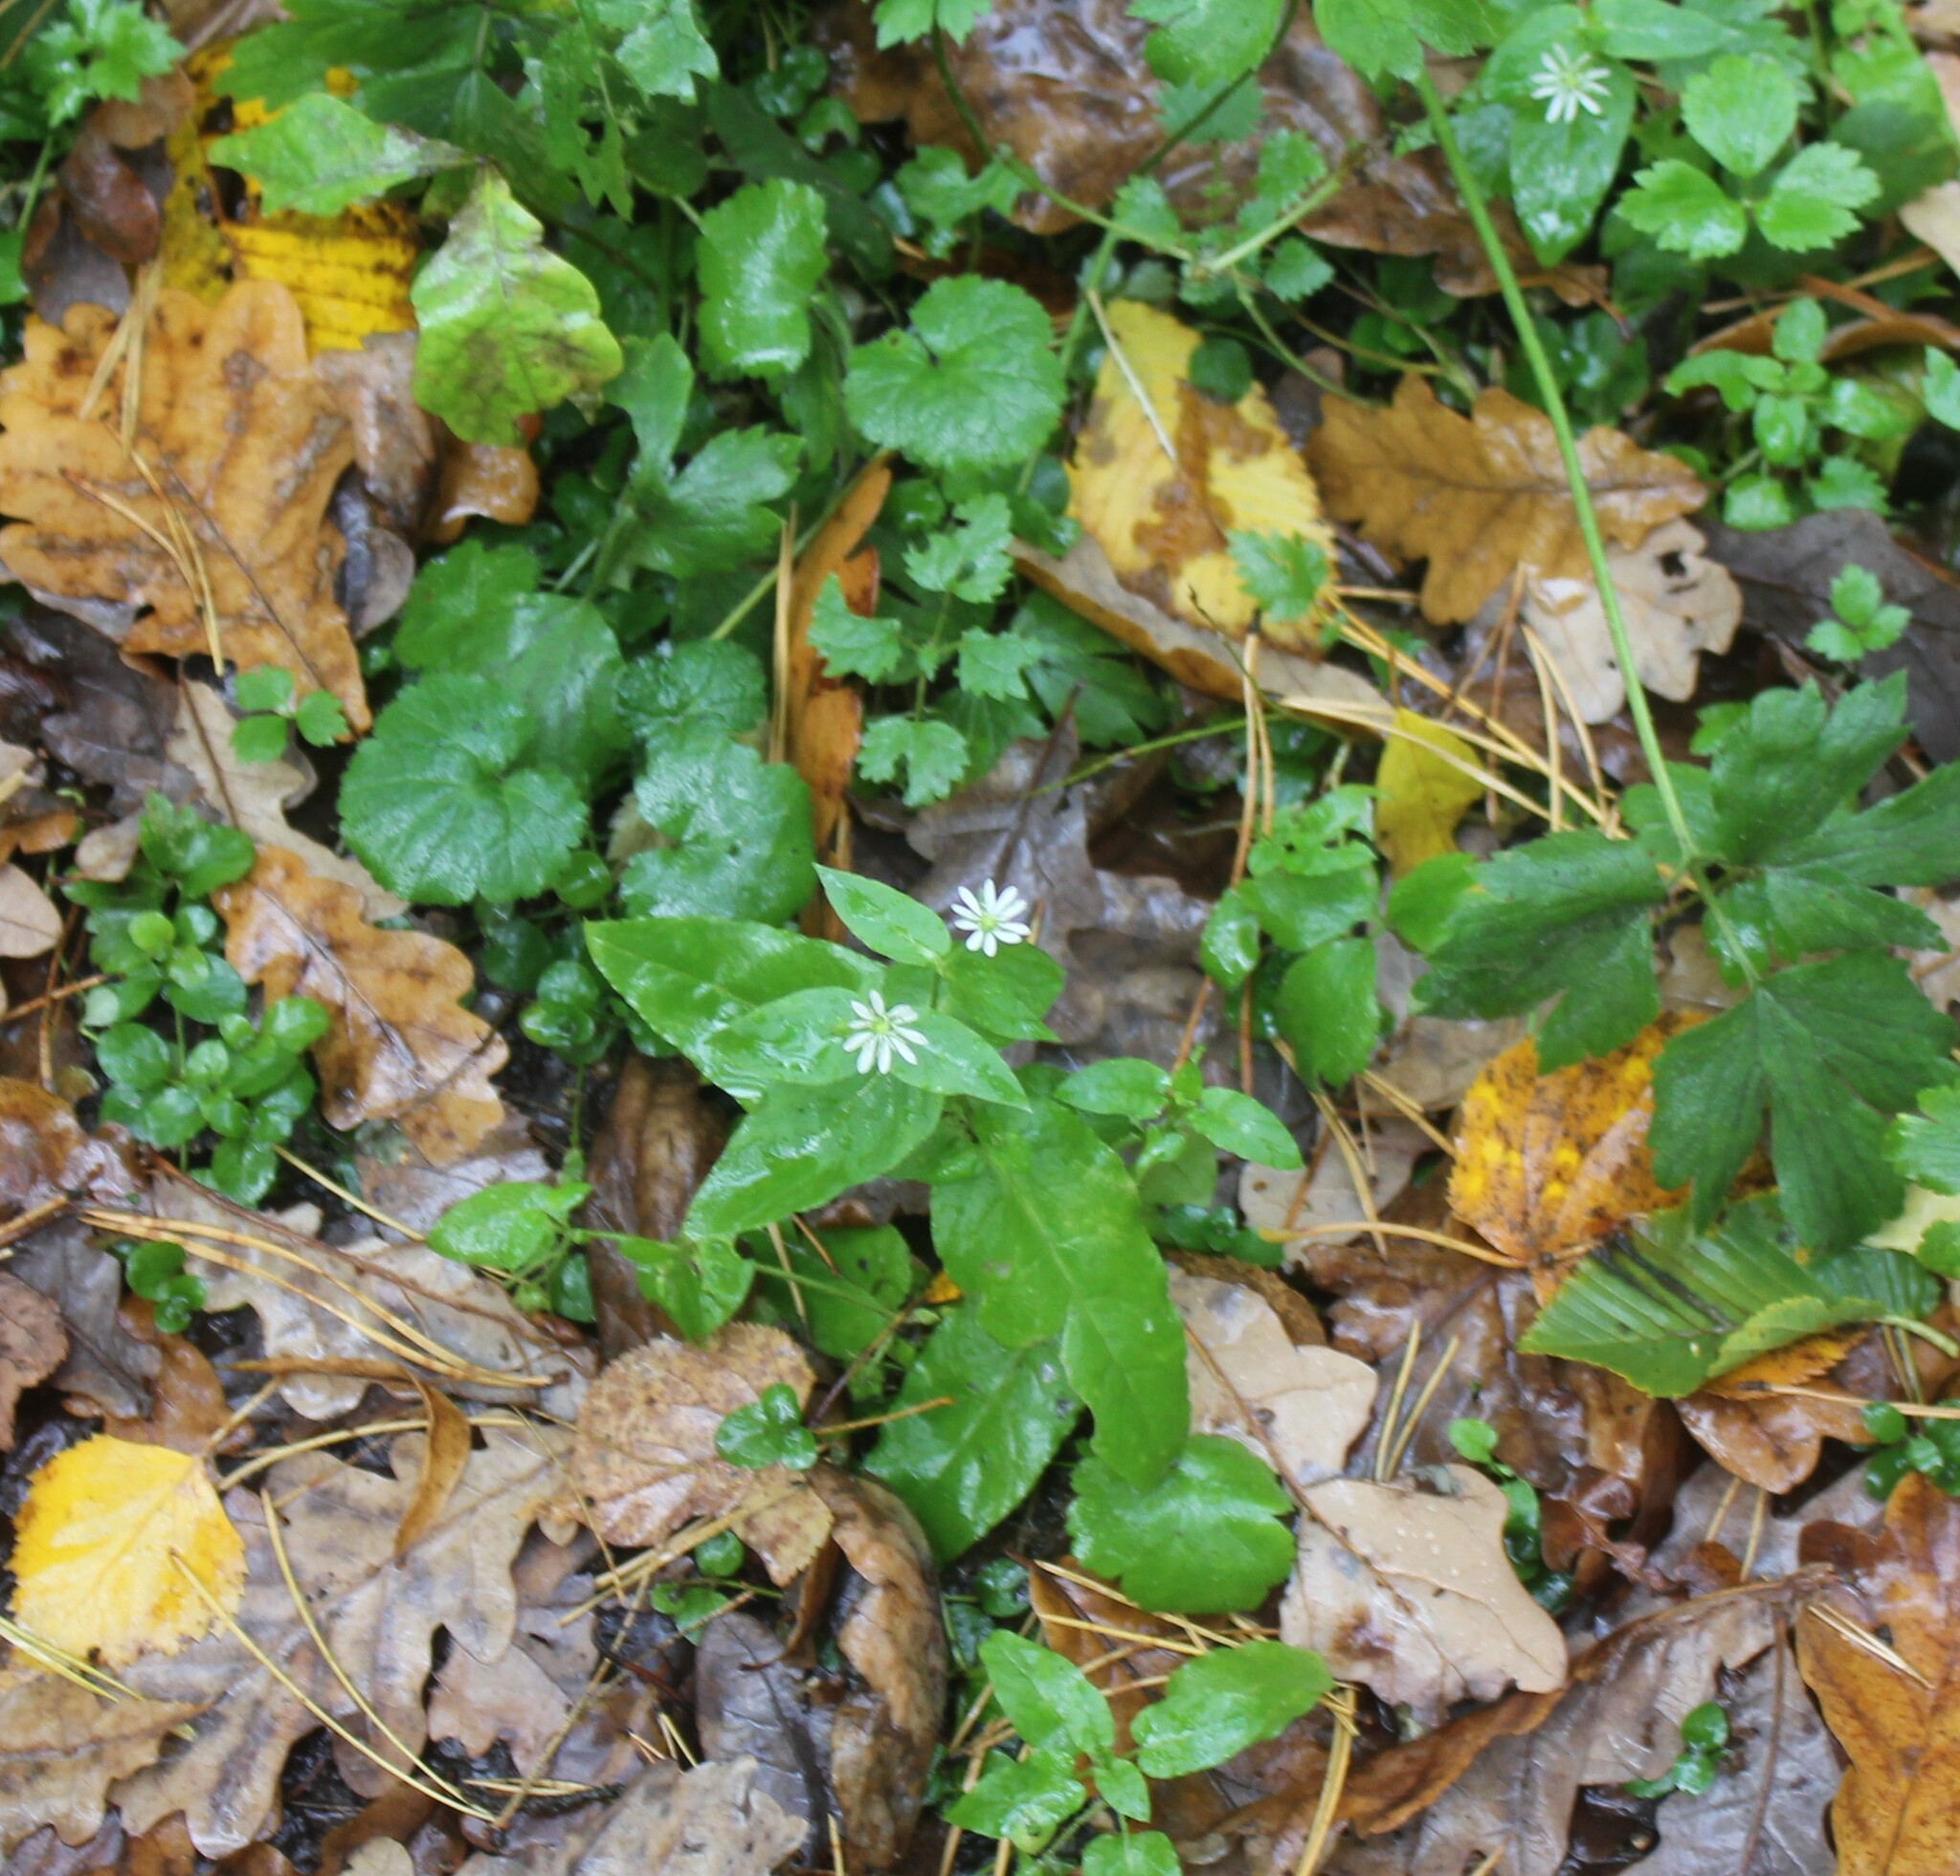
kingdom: Plantae
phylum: Tracheophyta
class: Magnoliopsida
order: Caryophyllales
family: Caryophyllaceae
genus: Stellaria
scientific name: Stellaria aquatica
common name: Water chickweed
